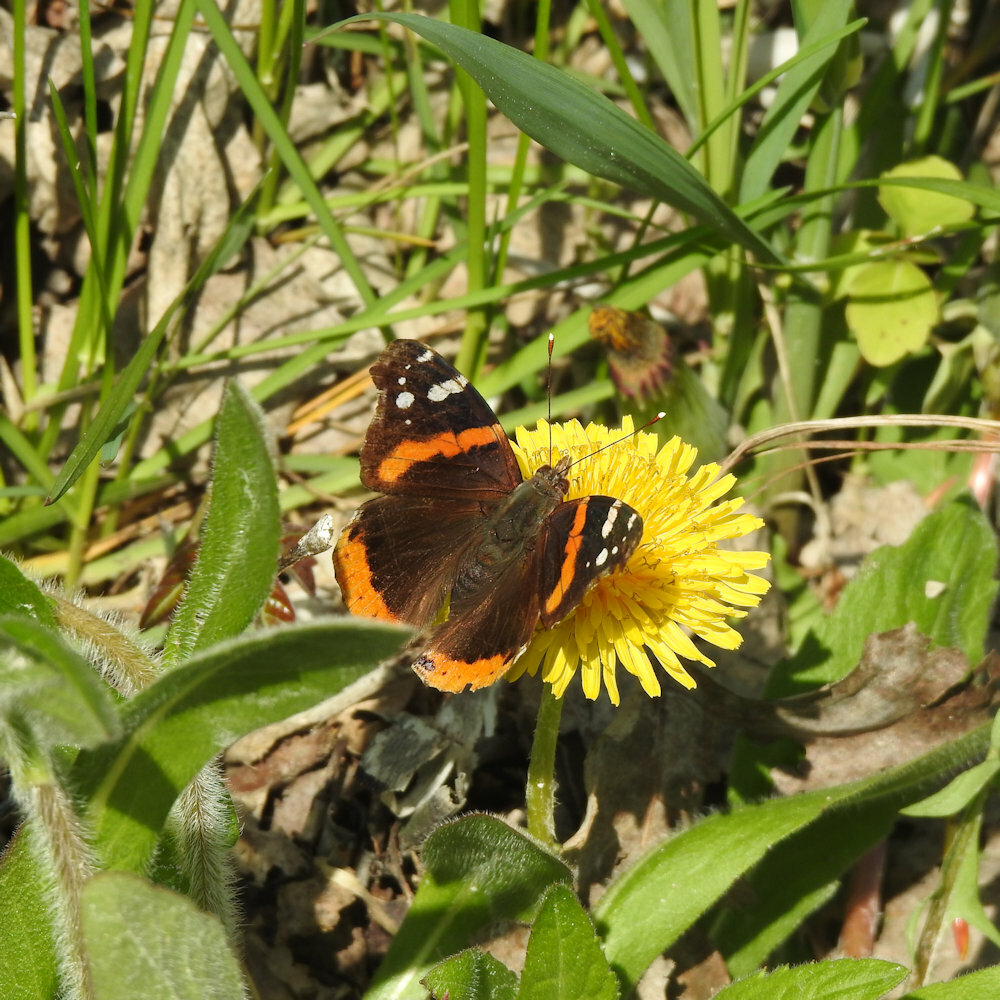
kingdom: Animalia
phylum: Arthropoda
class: Insecta
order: Lepidoptera
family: Nymphalidae
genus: Vanessa
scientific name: Vanessa atalanta
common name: Red admiral
